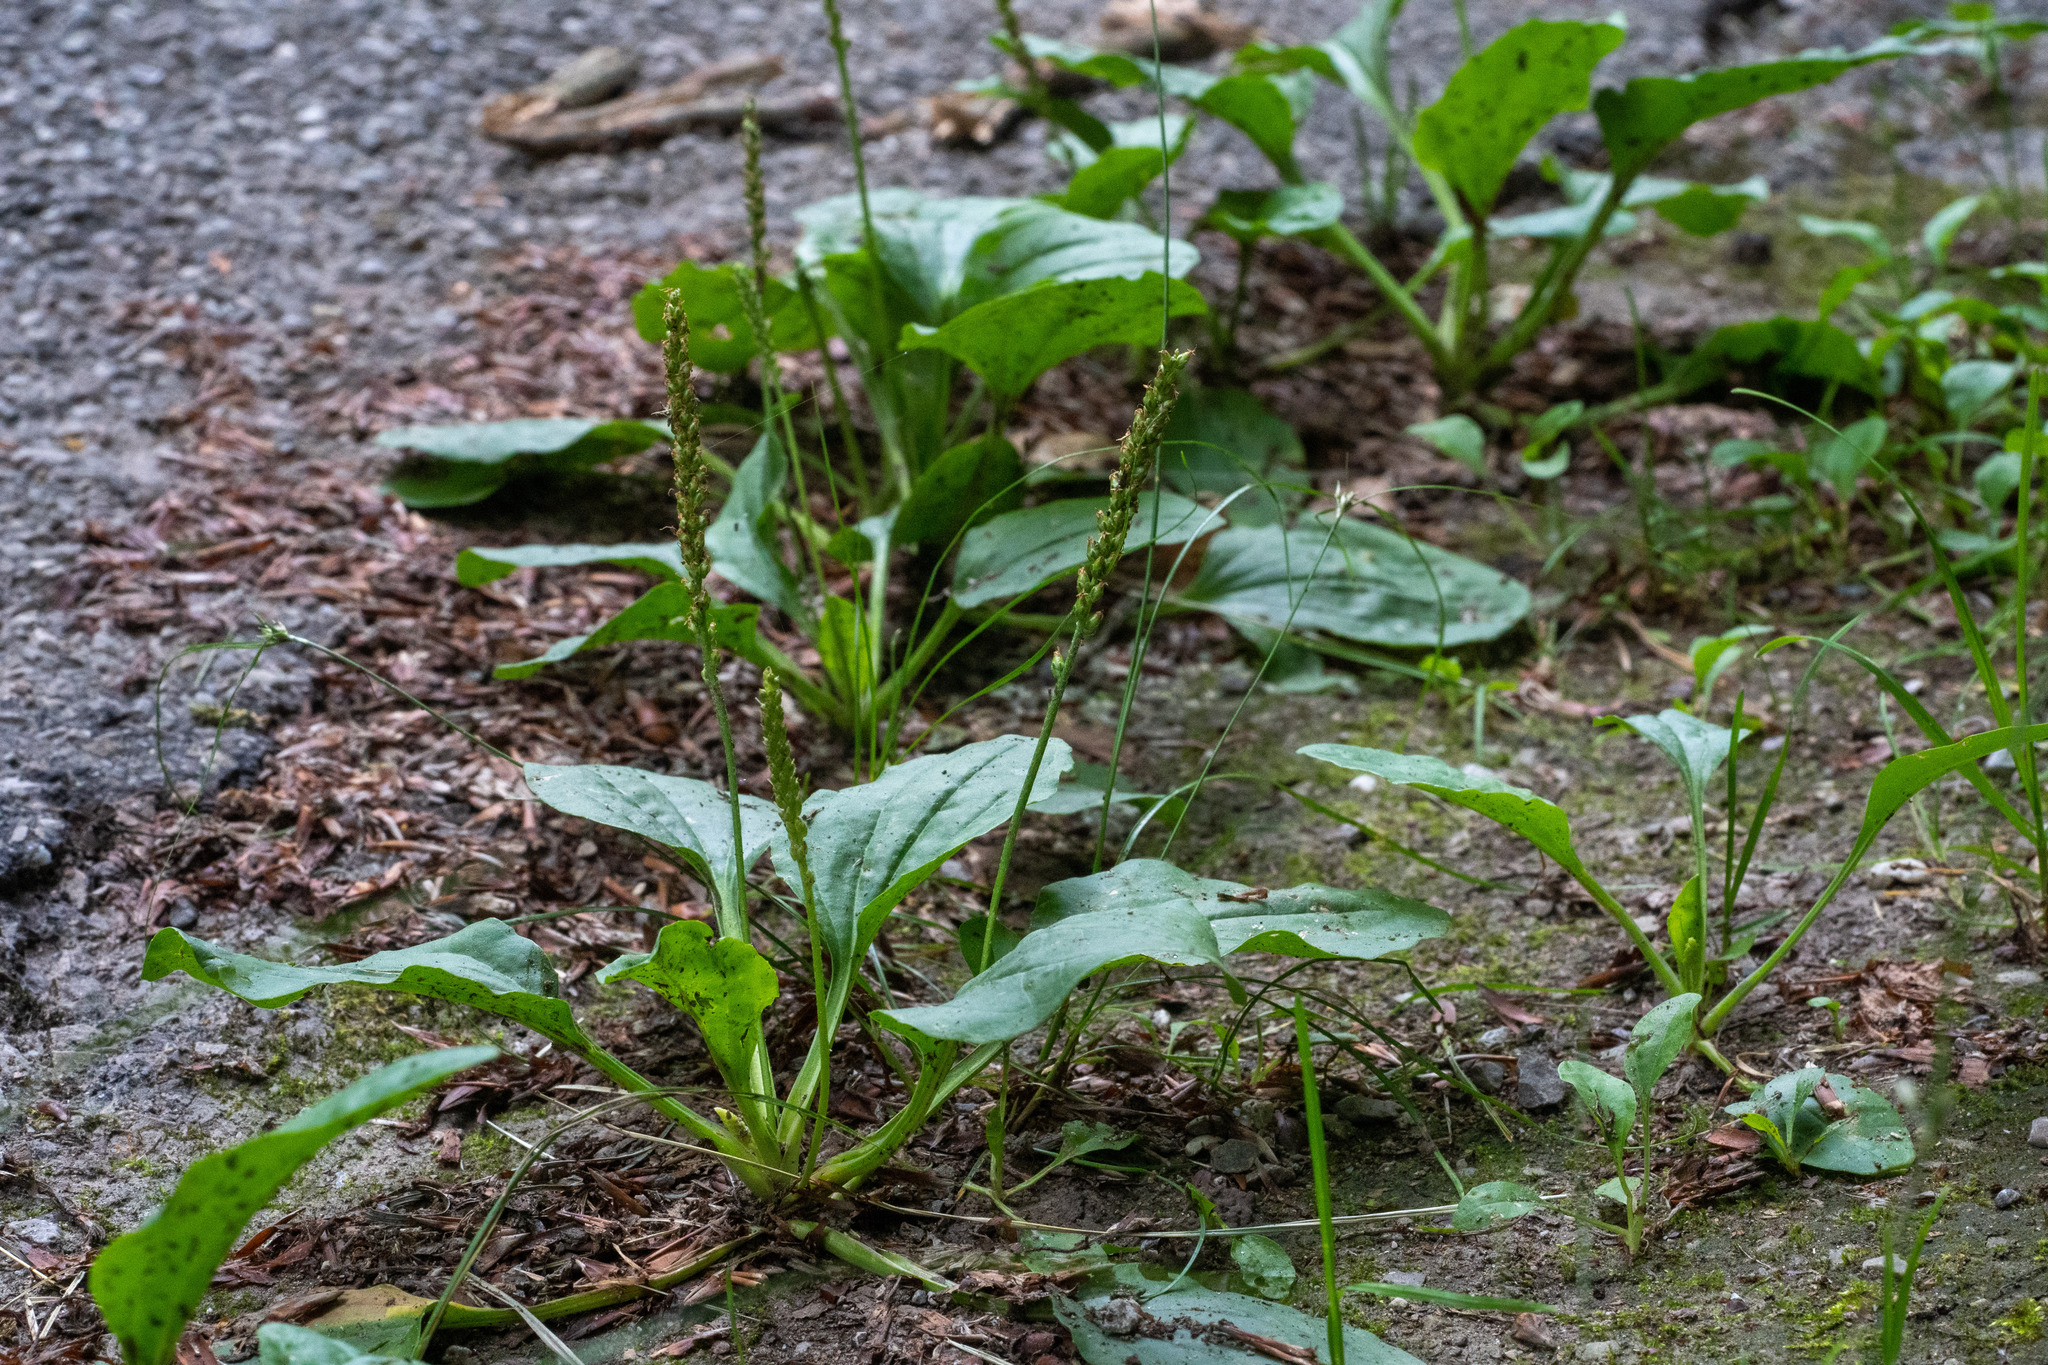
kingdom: Plantae
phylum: Tracheophyta
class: Magnoliopsida
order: Lamiales
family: Plantaginaceae
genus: Plantago
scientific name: Plantago major
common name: Common plantain
